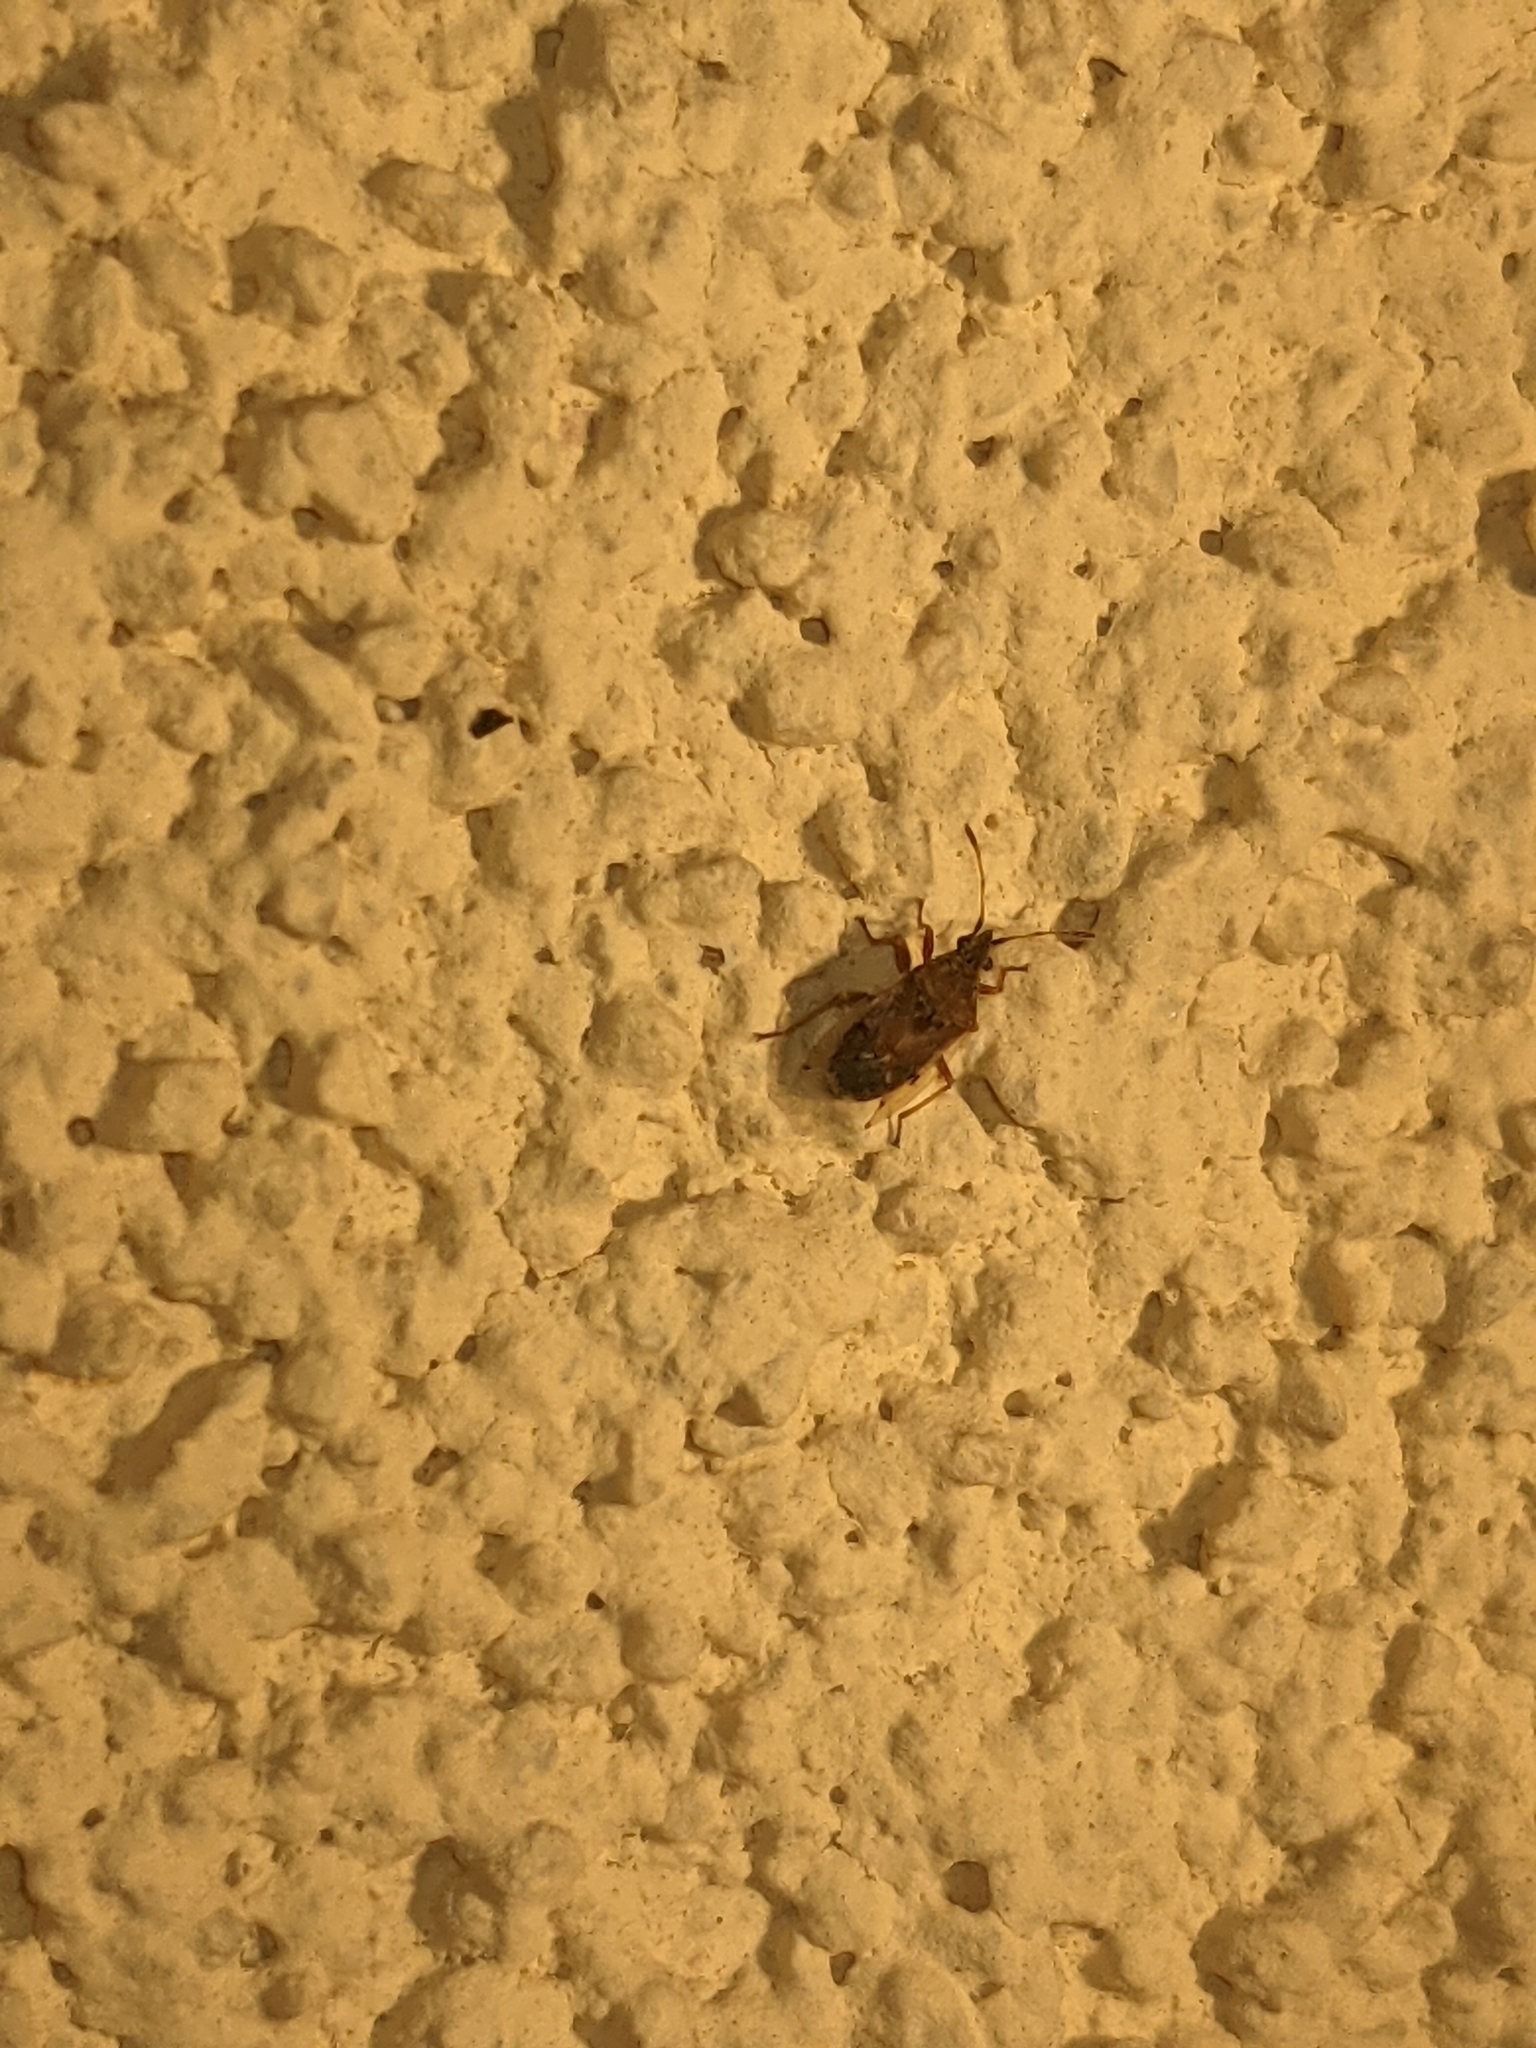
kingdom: Animalia
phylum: Arthropoda
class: Insecta
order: Hemiptera
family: Lygaeidae
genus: Kleidocerys
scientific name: Kleidocerys resedae
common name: Birch catkin bug
